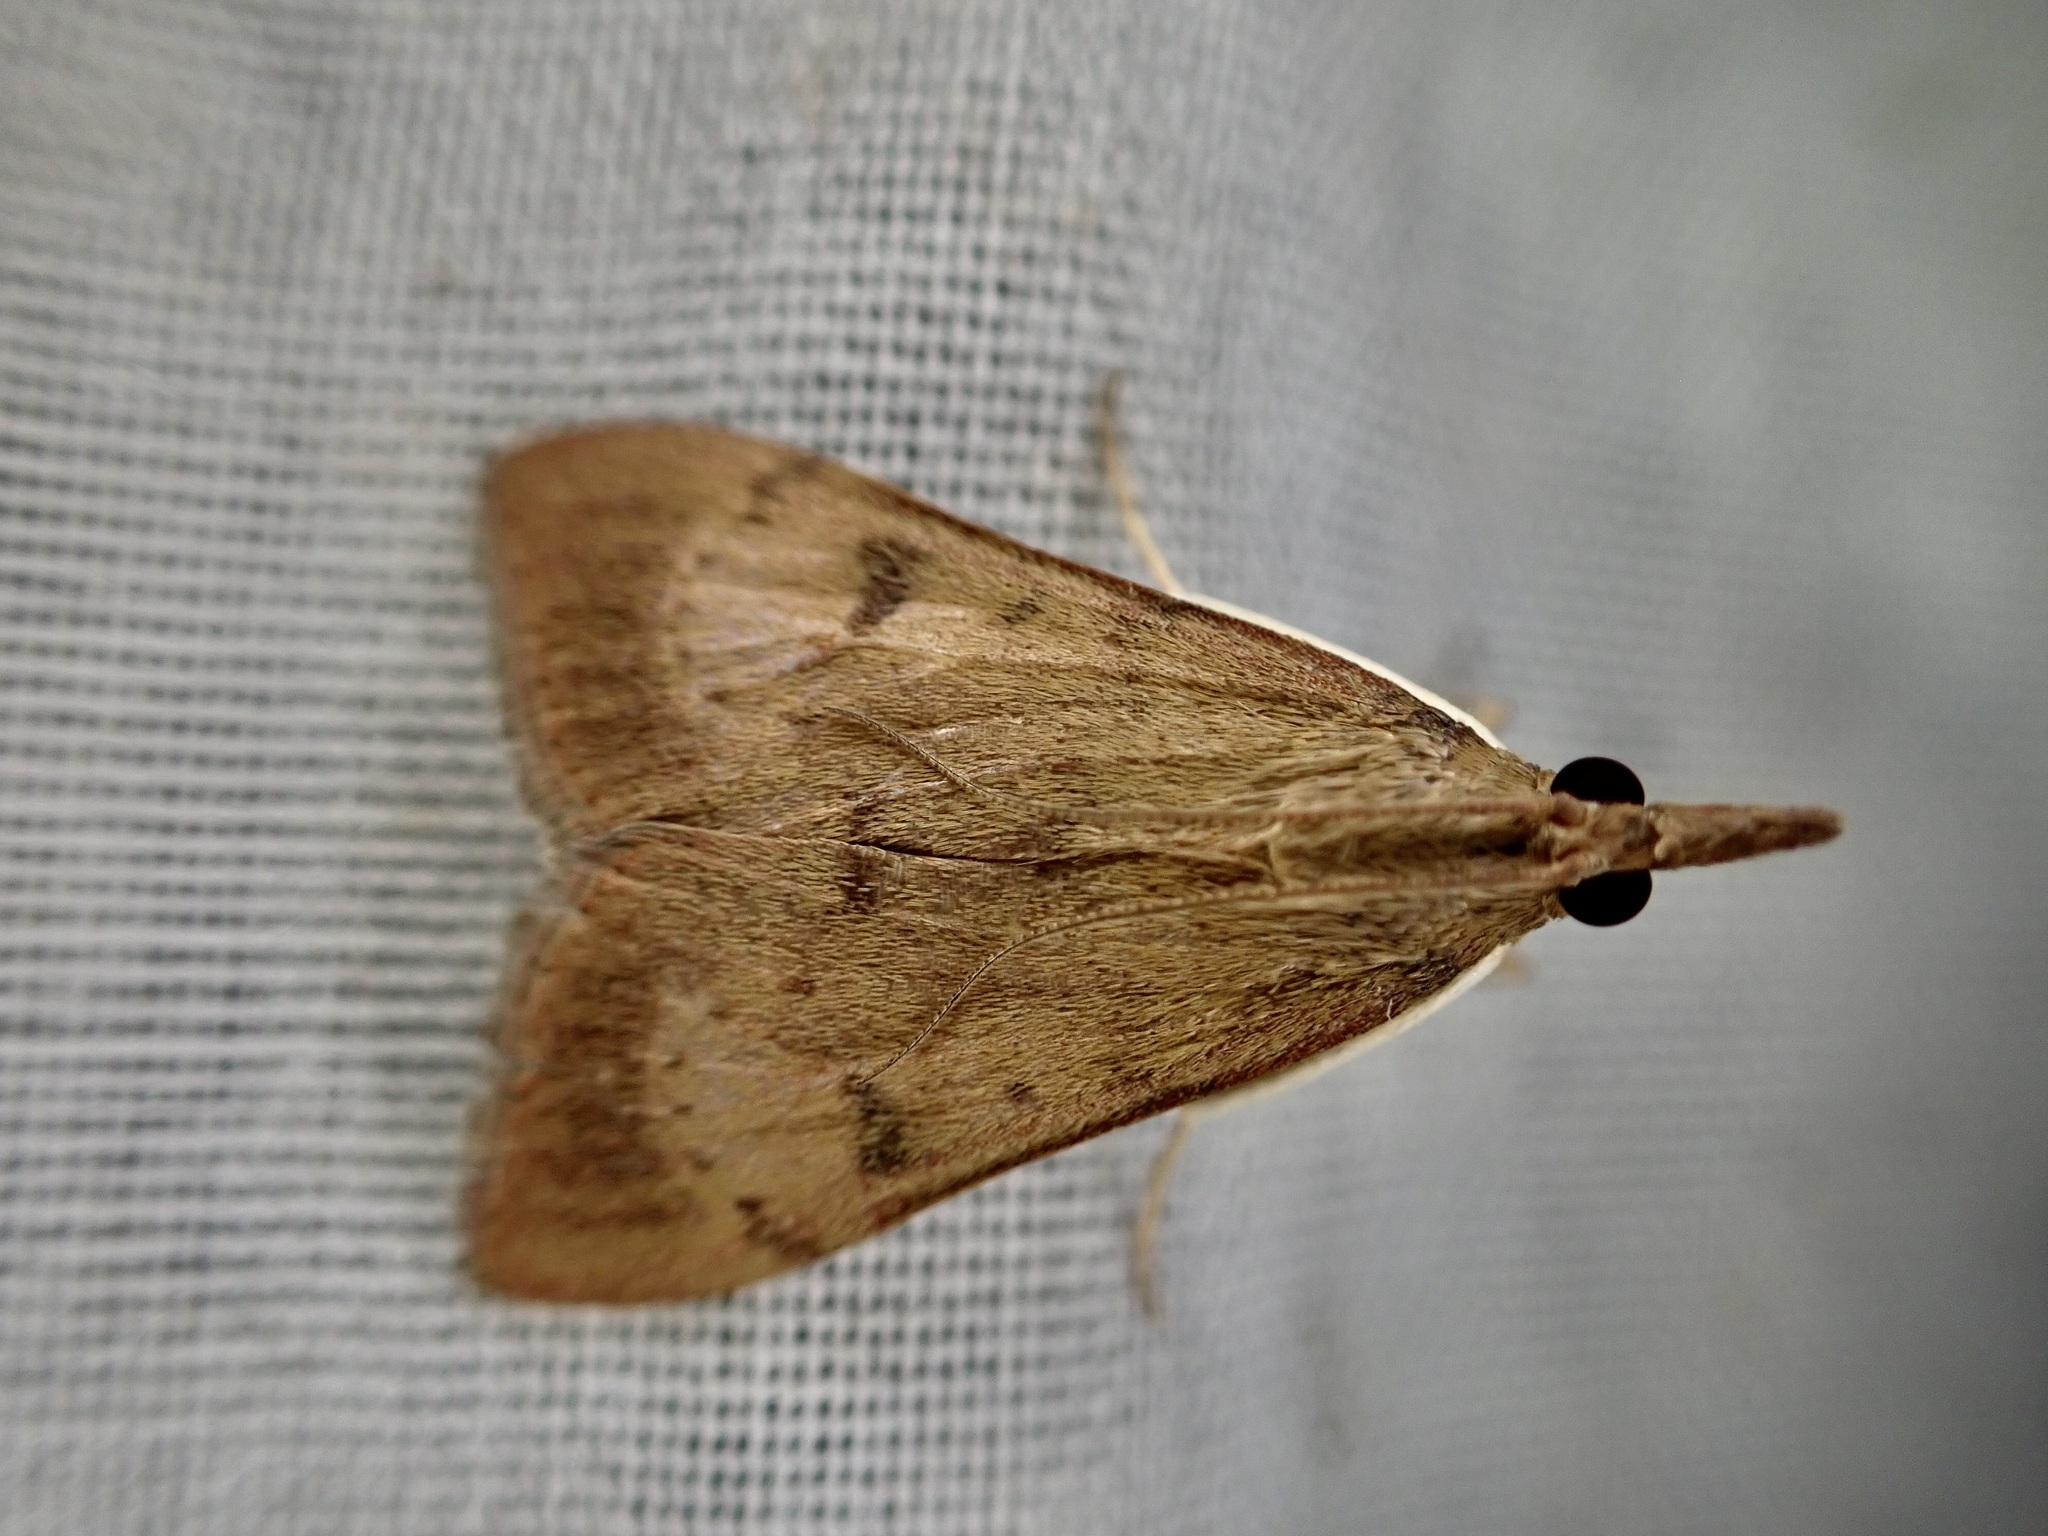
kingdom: Animalia
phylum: Arthropoda
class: Insecta
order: Lepidoptera
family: Crambidae
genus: Uresiphita
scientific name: Uresiphita
